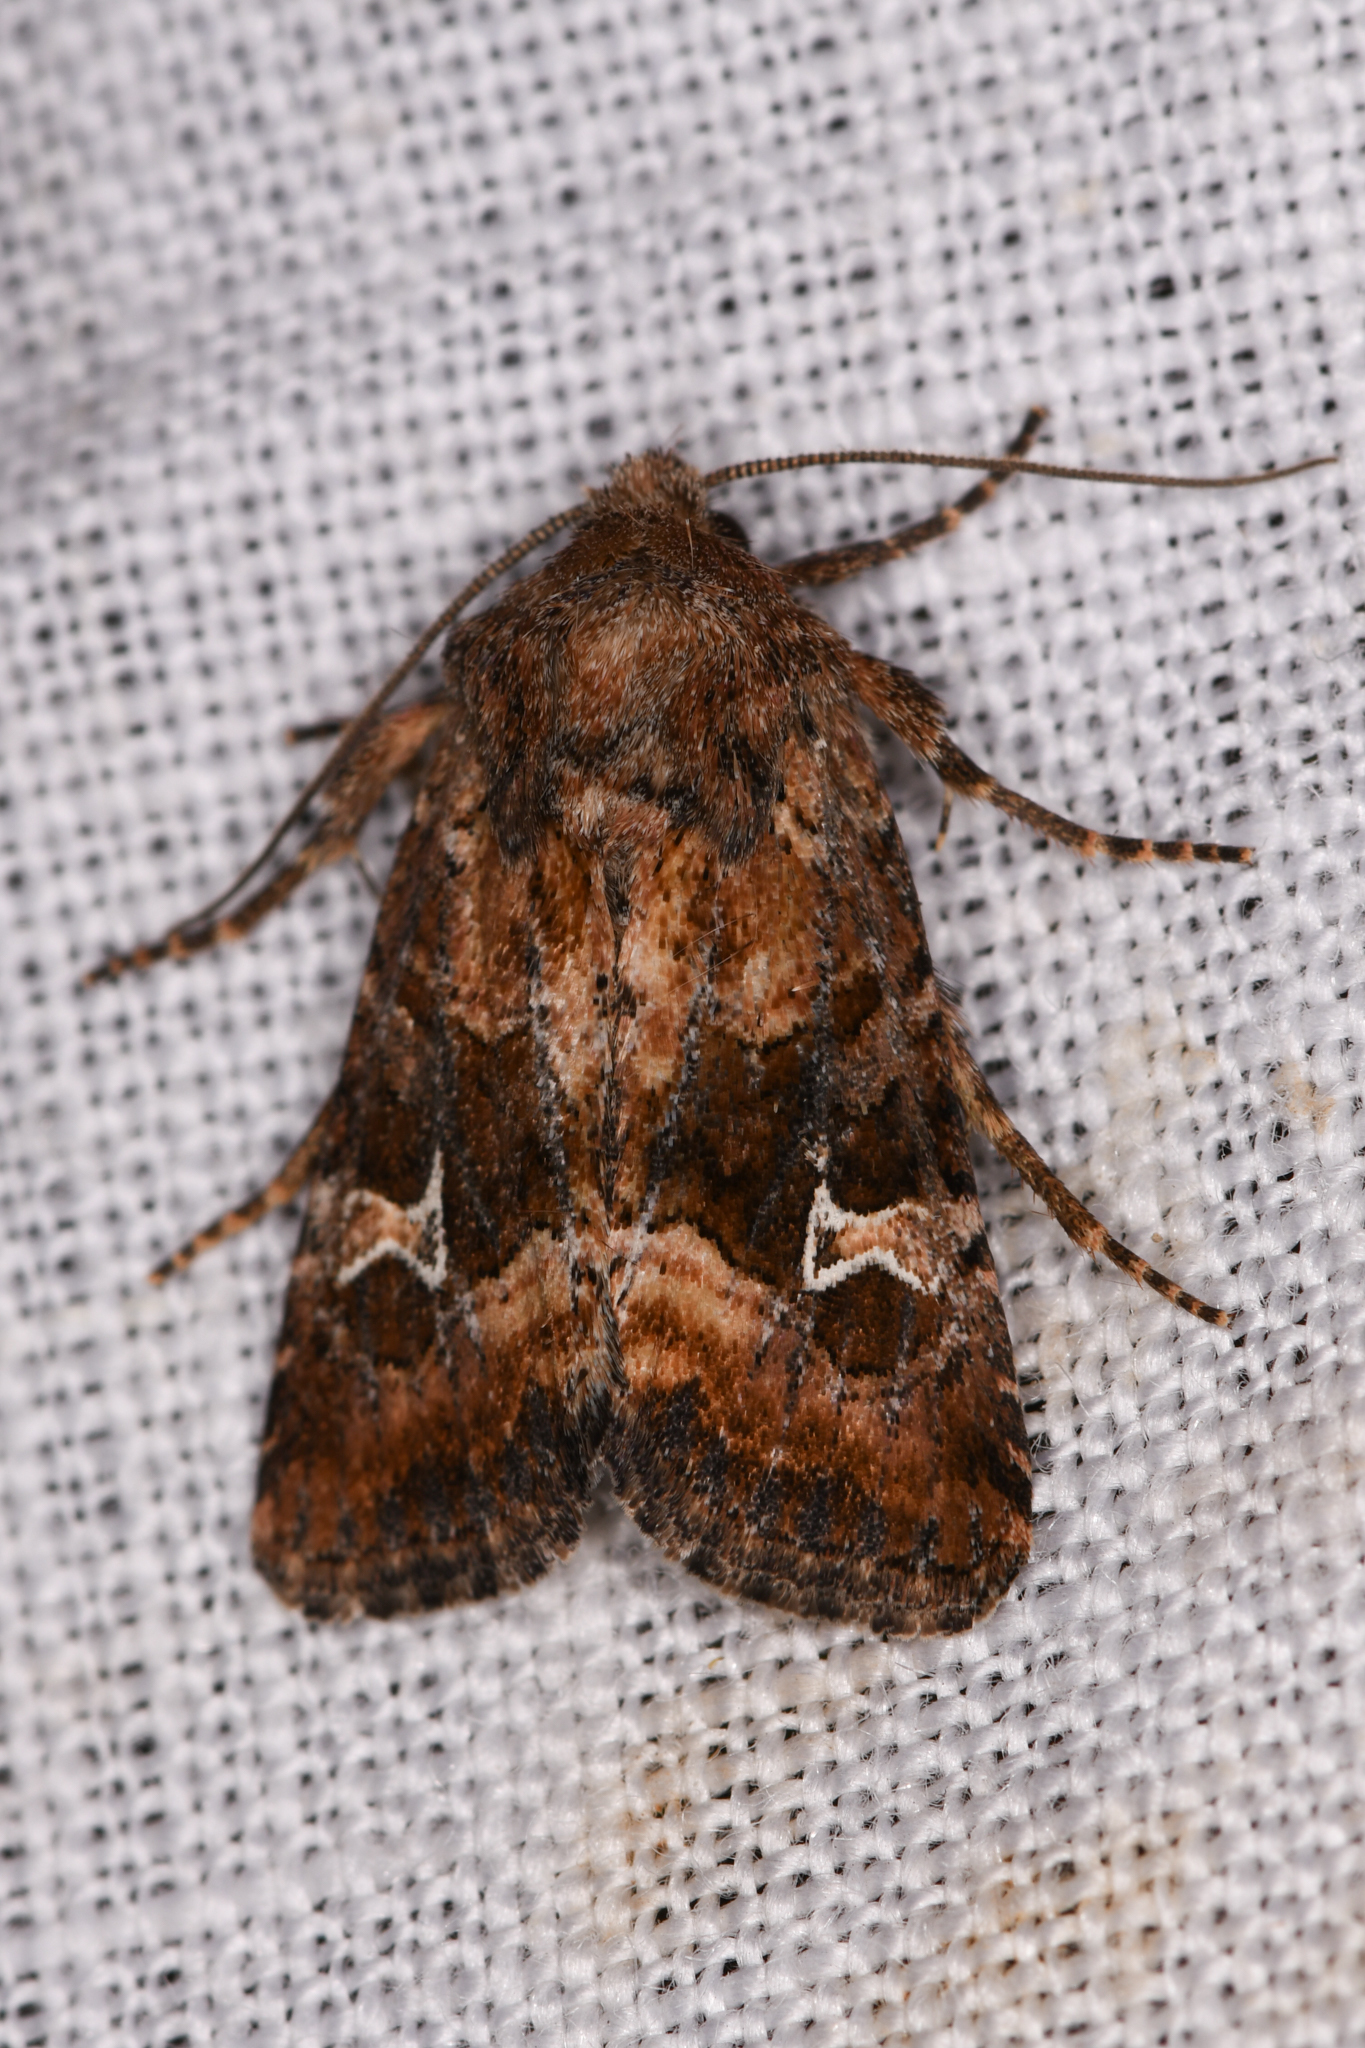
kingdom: Animalia
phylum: Arthropoda
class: Insecta
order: Lepidoptera
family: Noctuidae
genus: Lacinipolia
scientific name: Lacinipolia stricta
